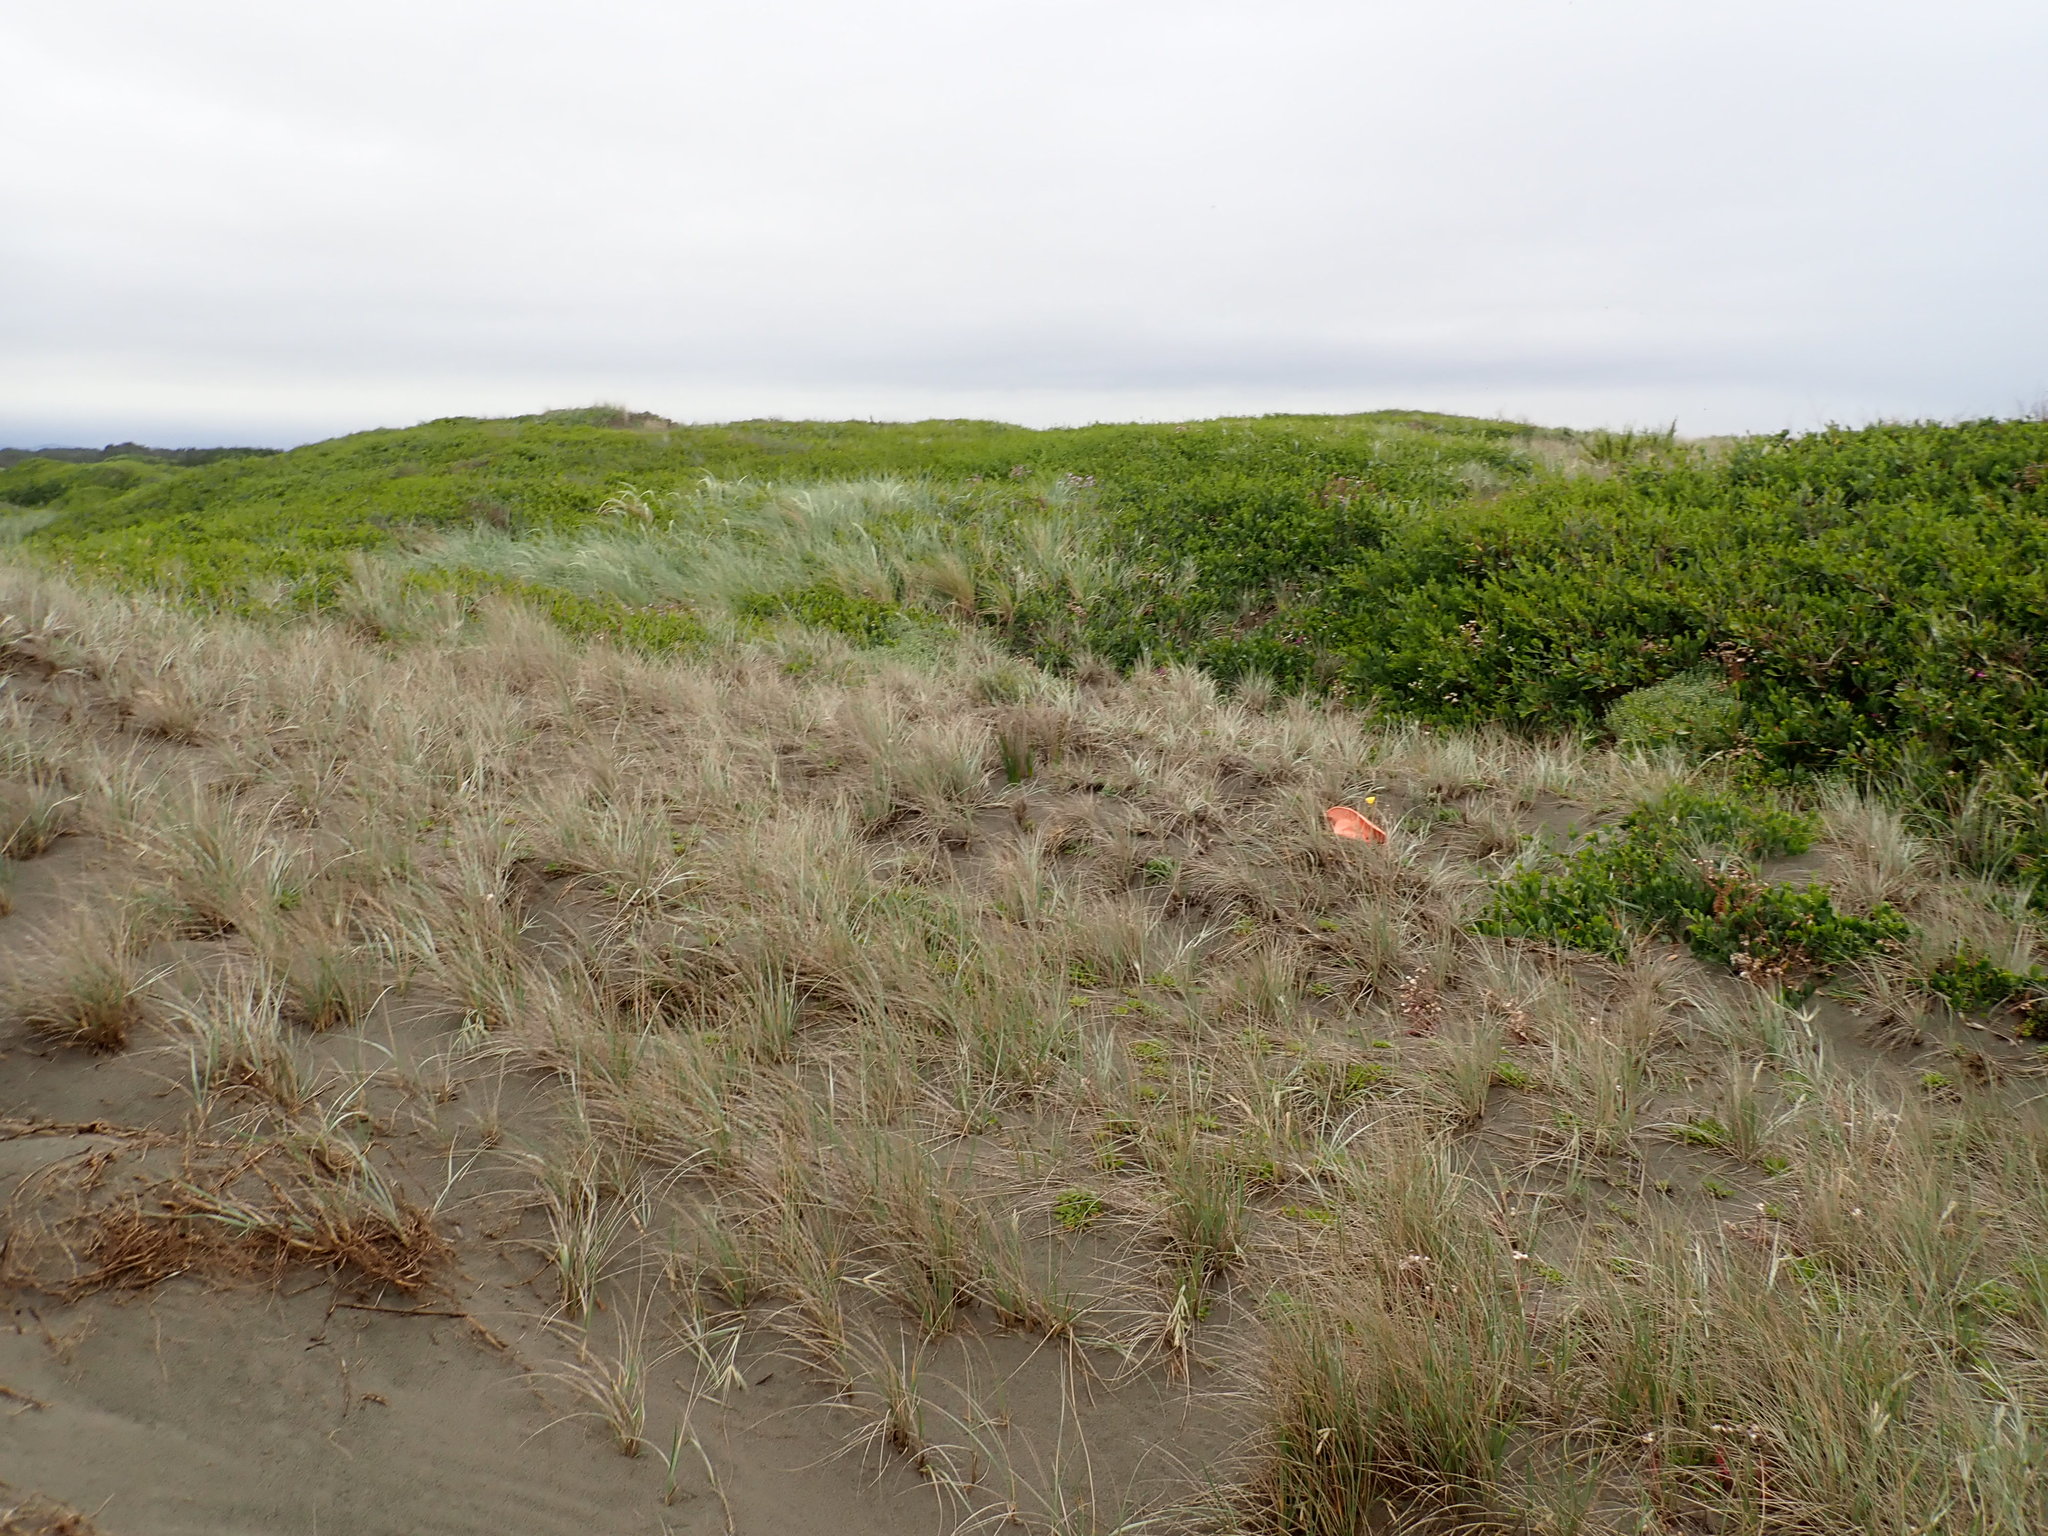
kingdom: Plantae
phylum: Tracheophyta
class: Magnoliopsida
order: Myrtales
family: Onagraceae
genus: Oenothera
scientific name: Oenothera stricta
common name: Fragrant evening-primrose
